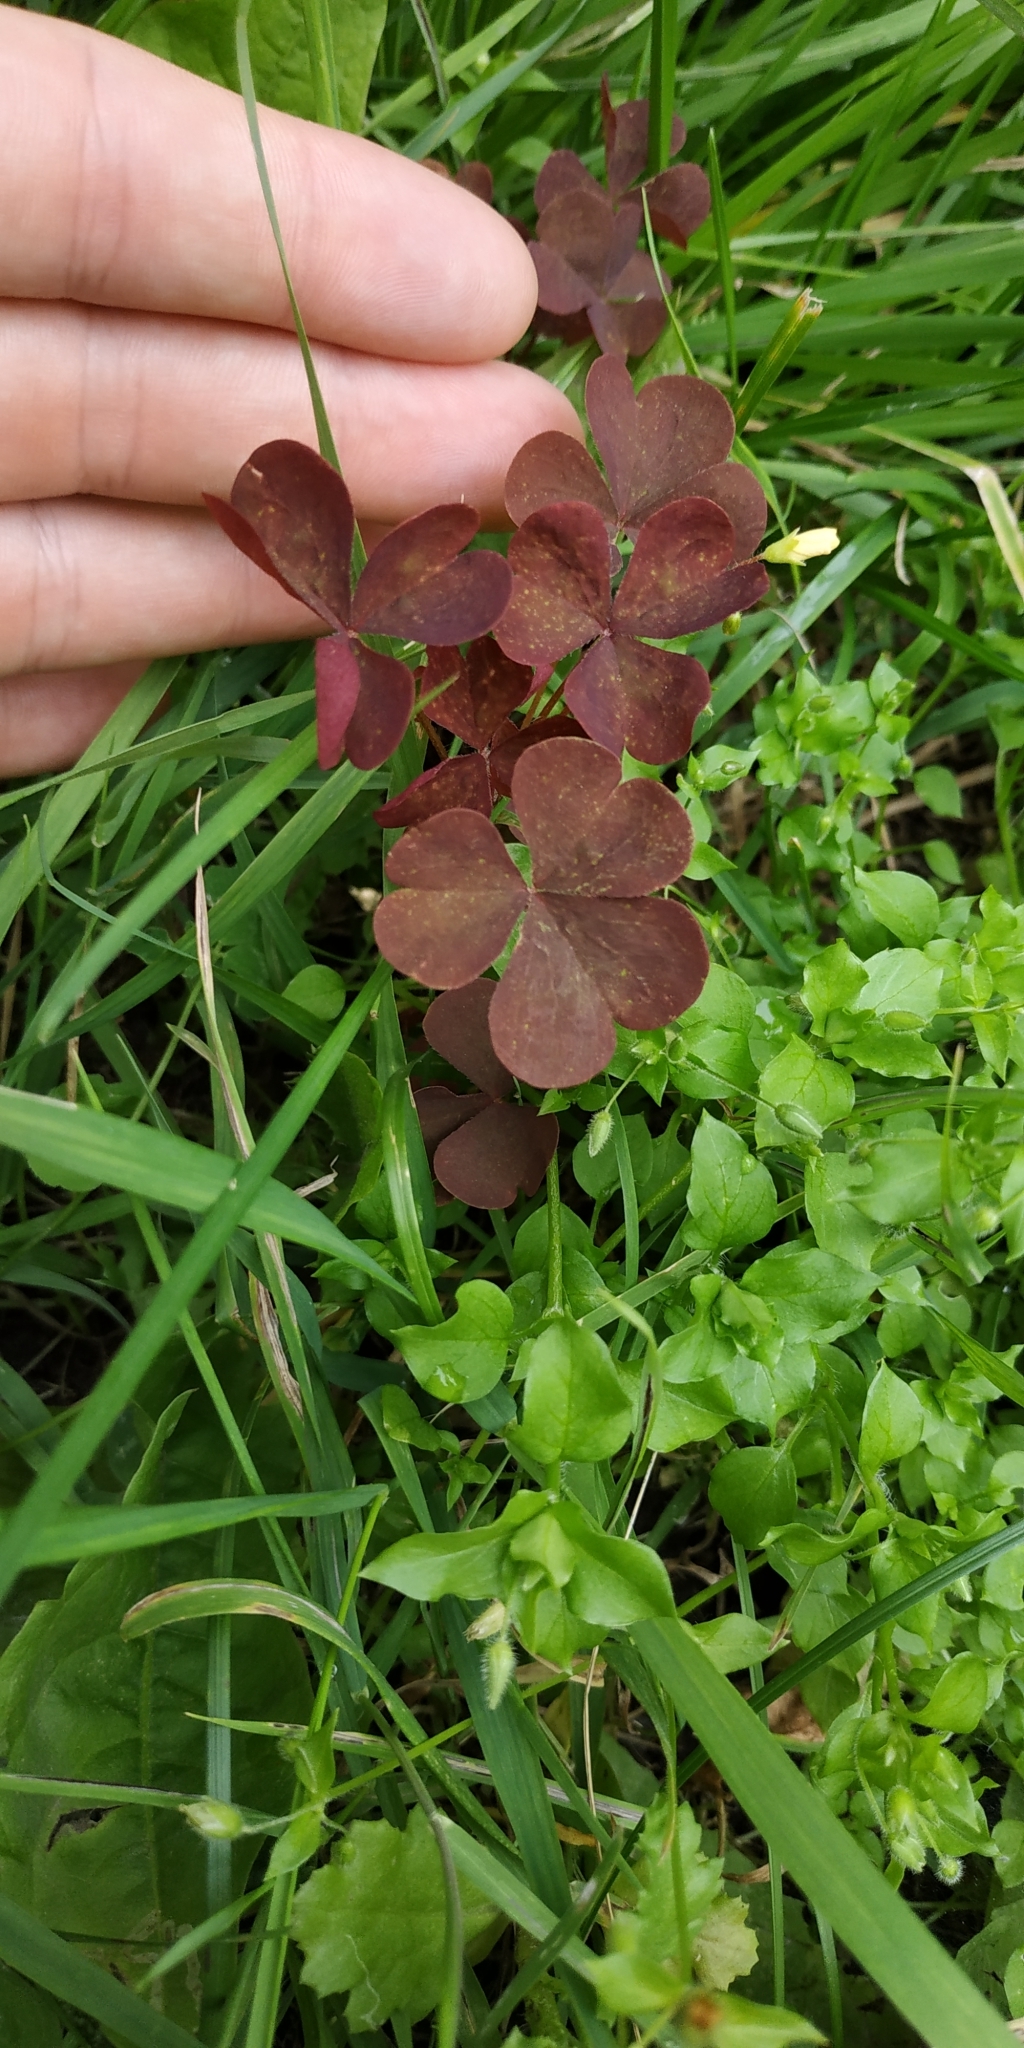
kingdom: Plantae
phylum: Tracheophyta
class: Magnoliopsida
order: Oxalidales
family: Oxalidaceae
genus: Oxalis
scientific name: Oxalis stricta
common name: Upright yellow-sorrel
